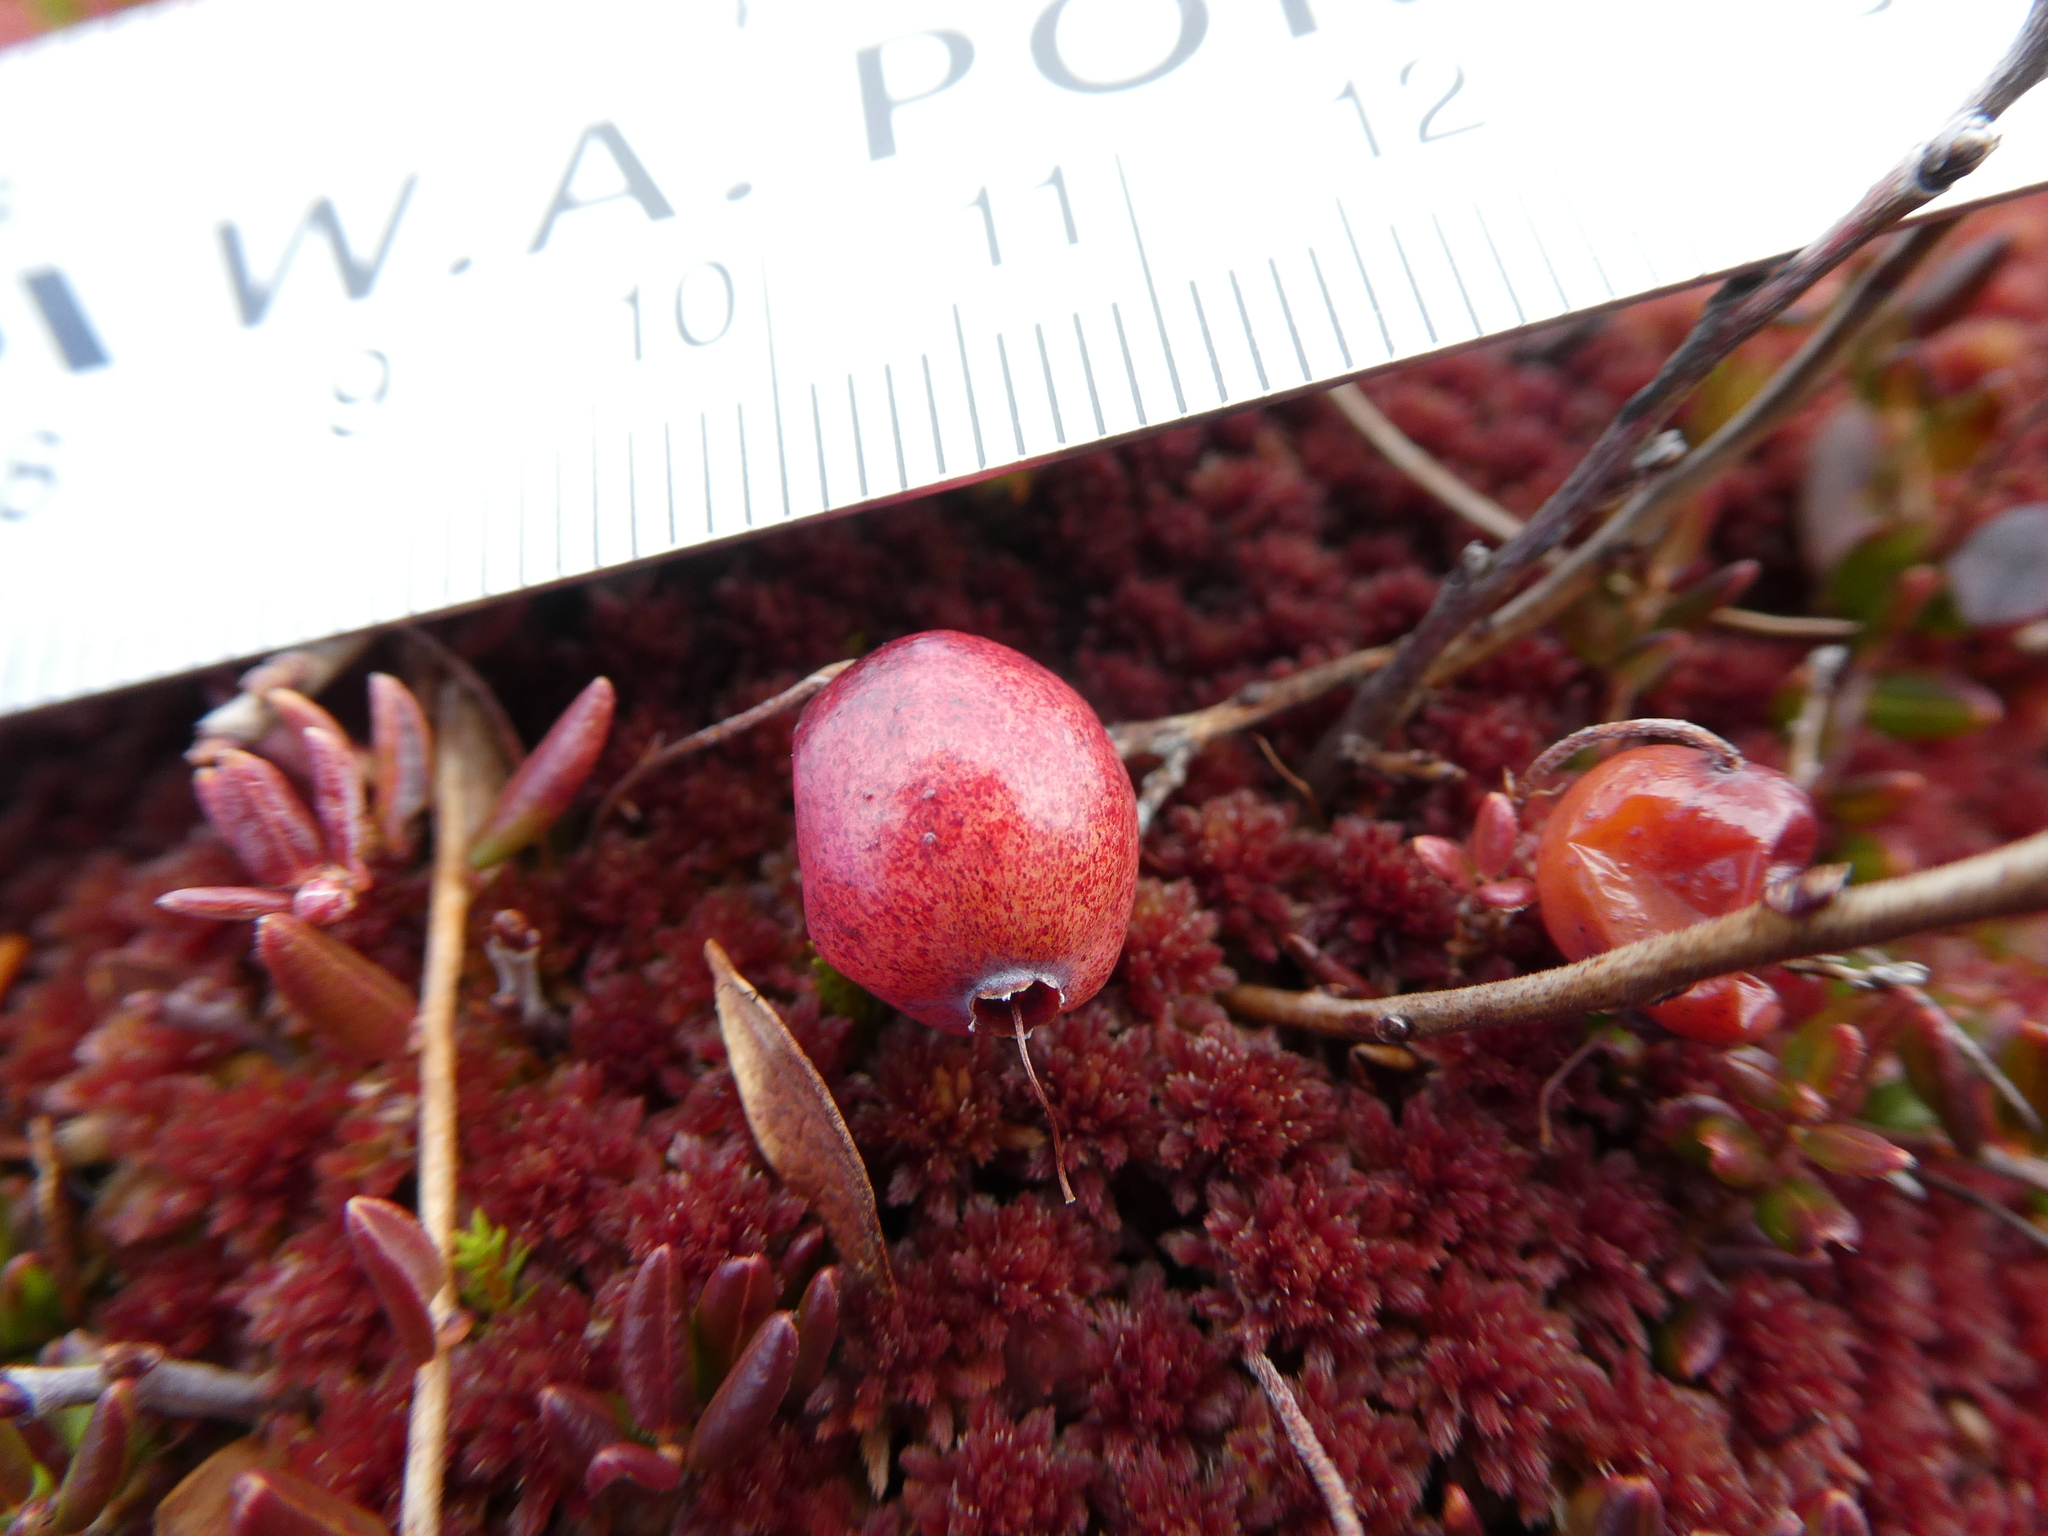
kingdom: Plantae
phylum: Tracheophyta
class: Magnoliopsida
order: Ericales
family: Ericaceae
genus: Vaccinium
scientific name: Vaccinium oxycoccos
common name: Cranberry
